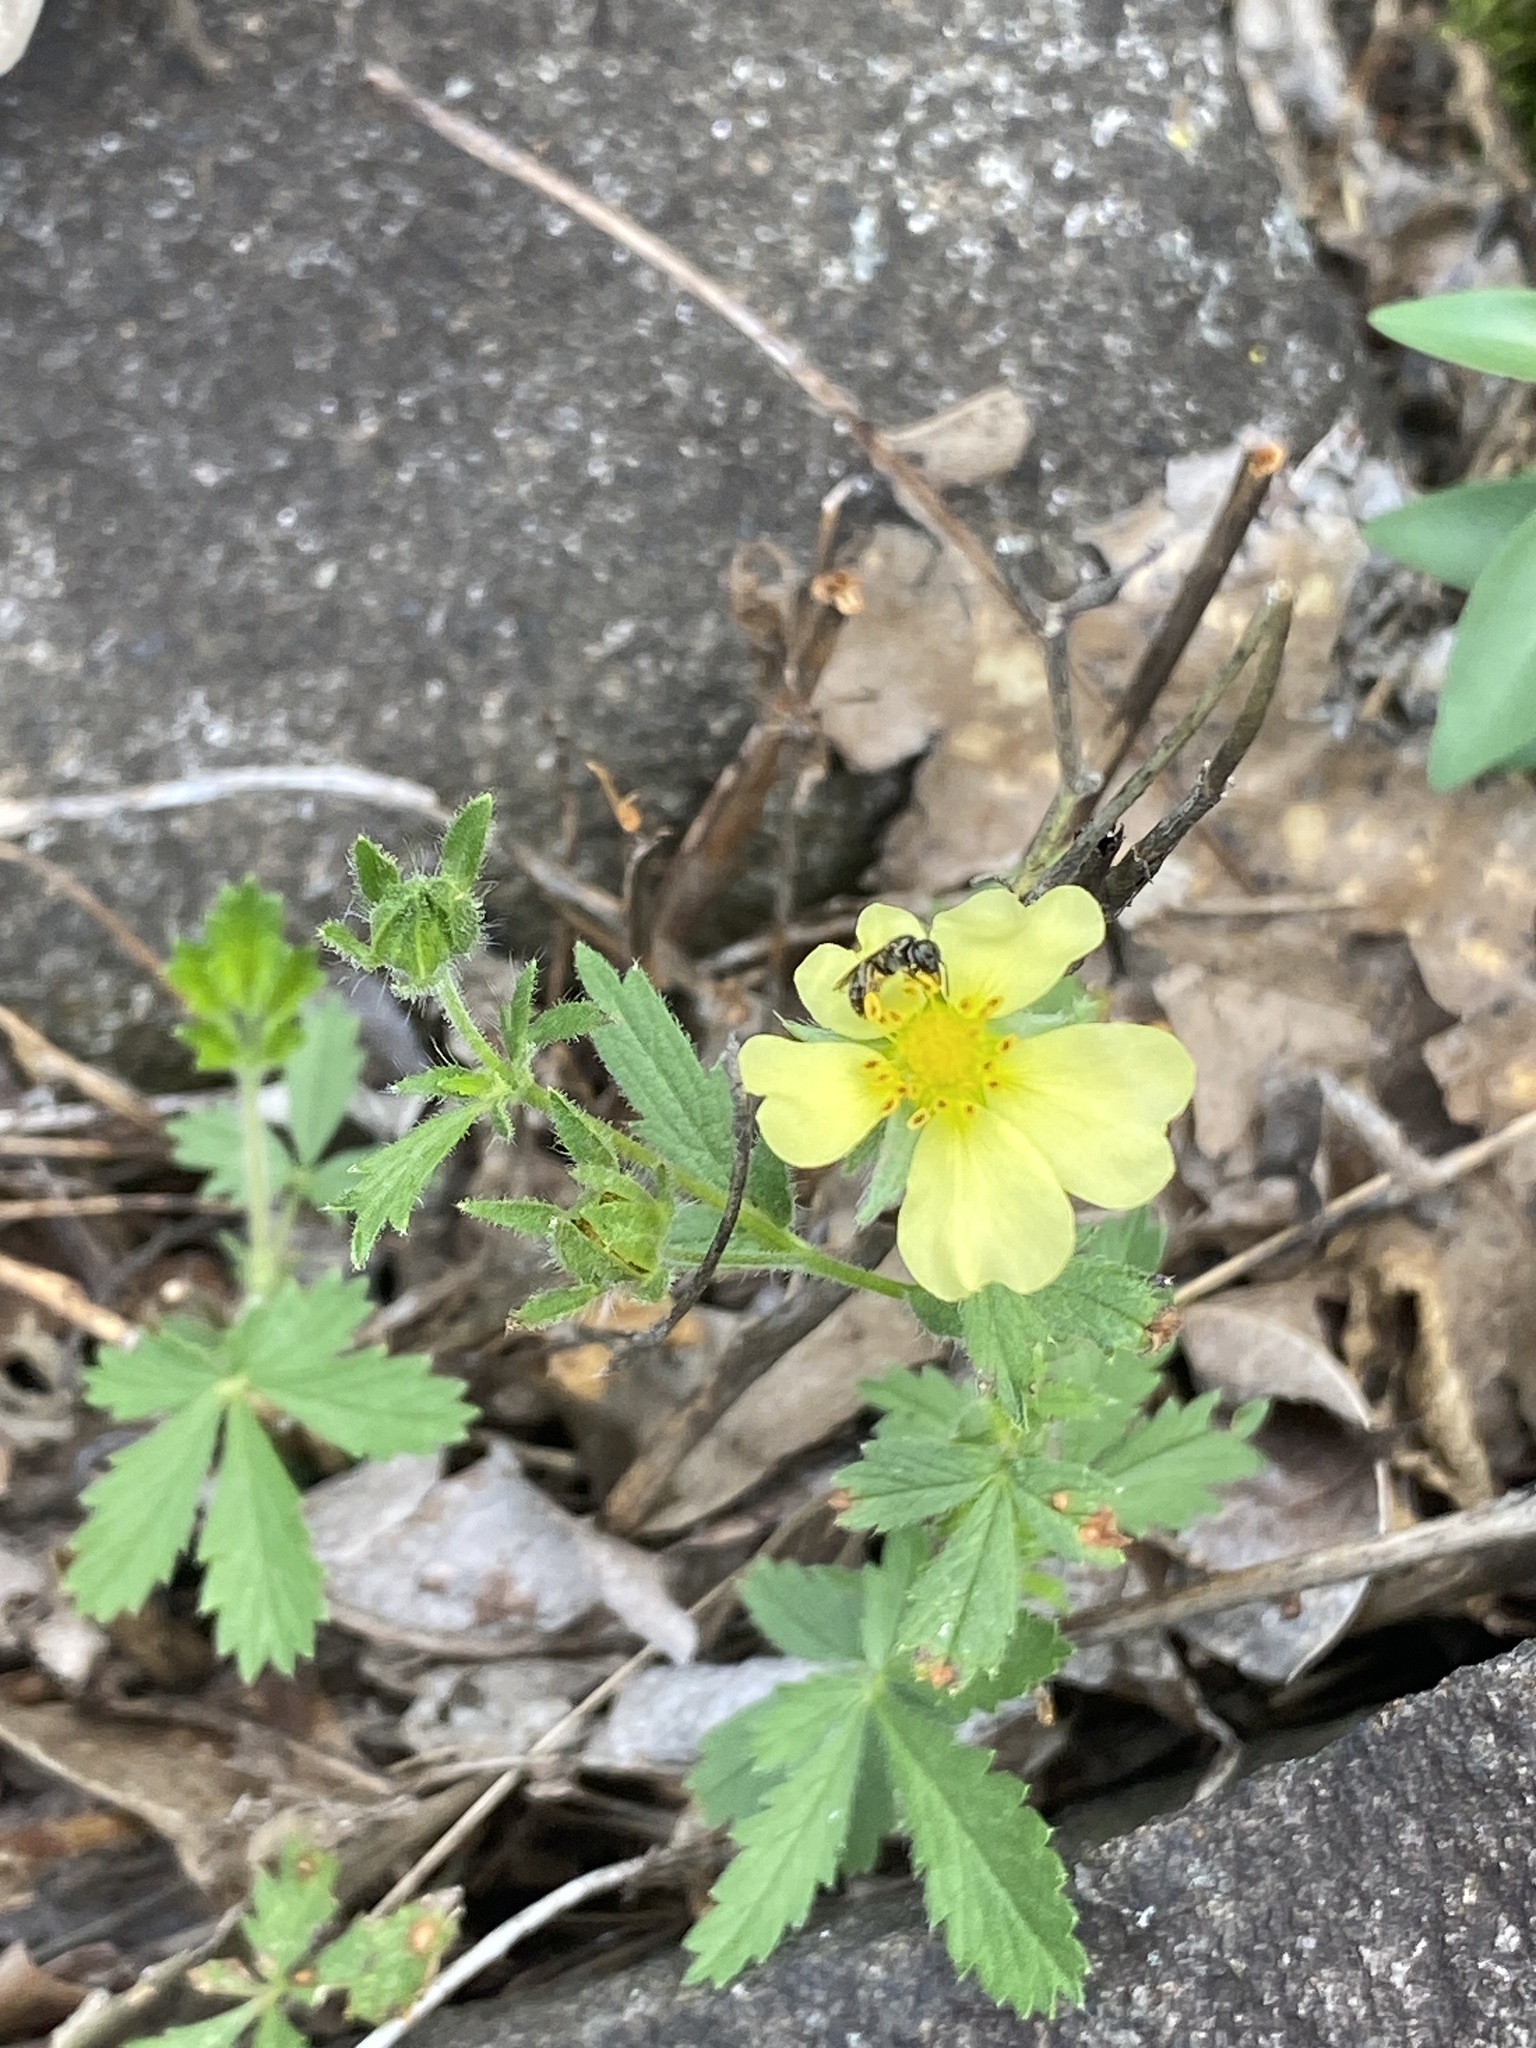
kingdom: Plantae
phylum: Tracheophyta
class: Magnoliopsida
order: Rosales
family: Rosaceae
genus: Potentilla
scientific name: Potentilla recta
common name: Sulphur cinquefoil
